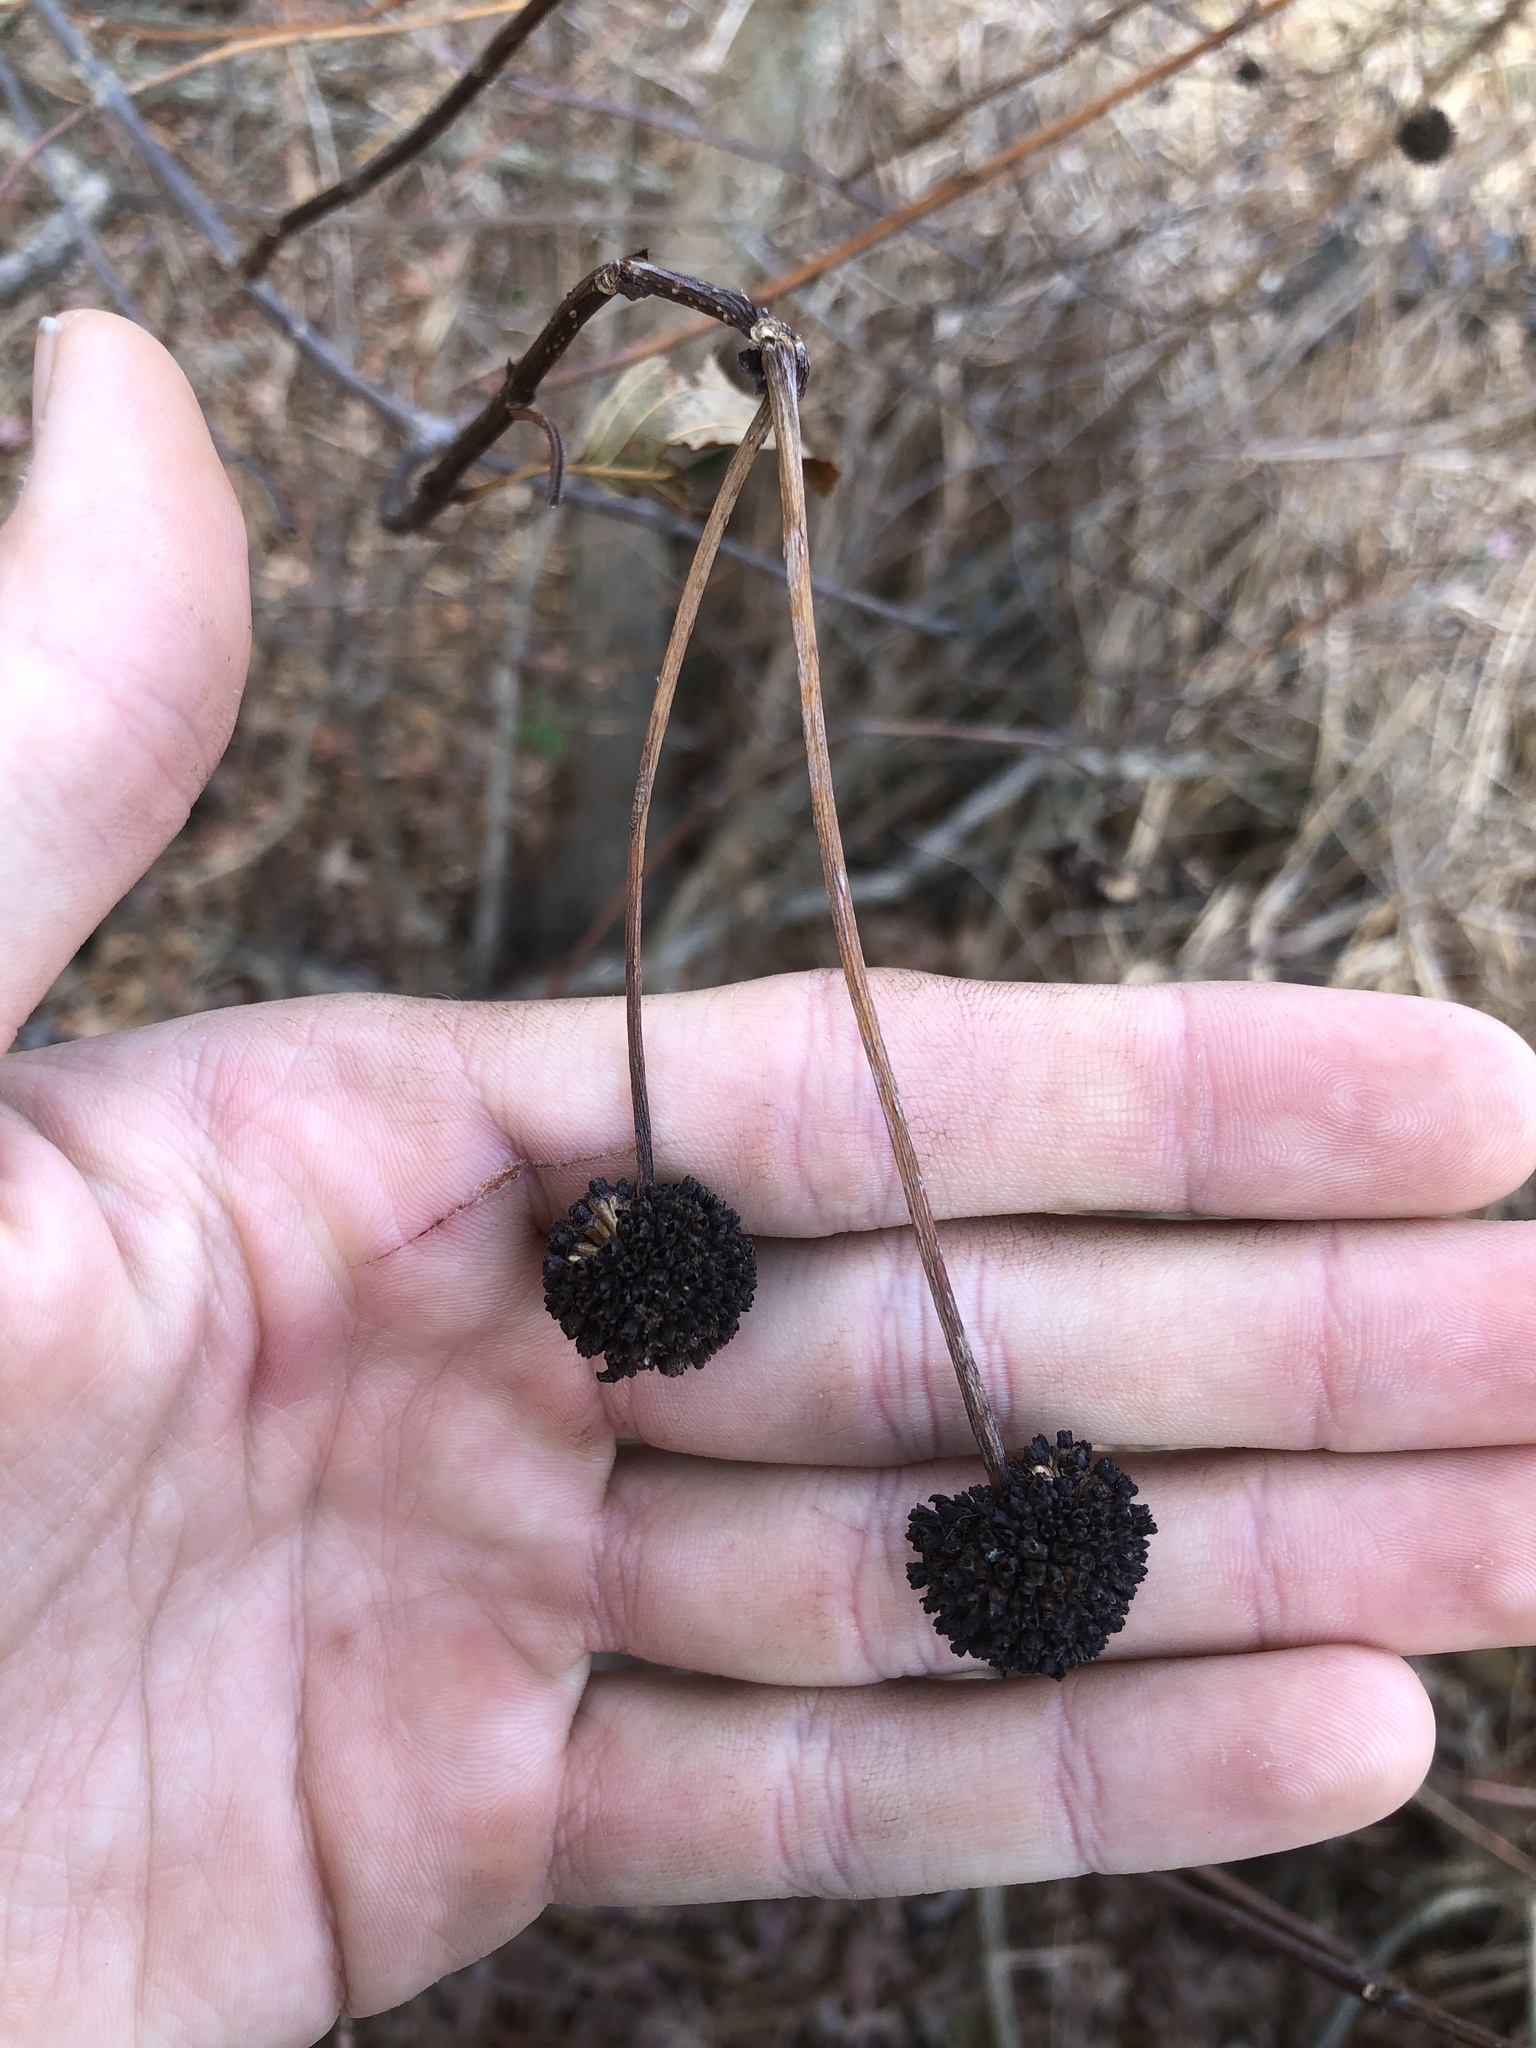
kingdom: Plantae
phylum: Tracheophyta
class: Magnoliopsida
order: Gentianales
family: Rubiaceae
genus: Cephalanthus
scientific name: Cephalanthus occidentalis
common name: Button-willow
